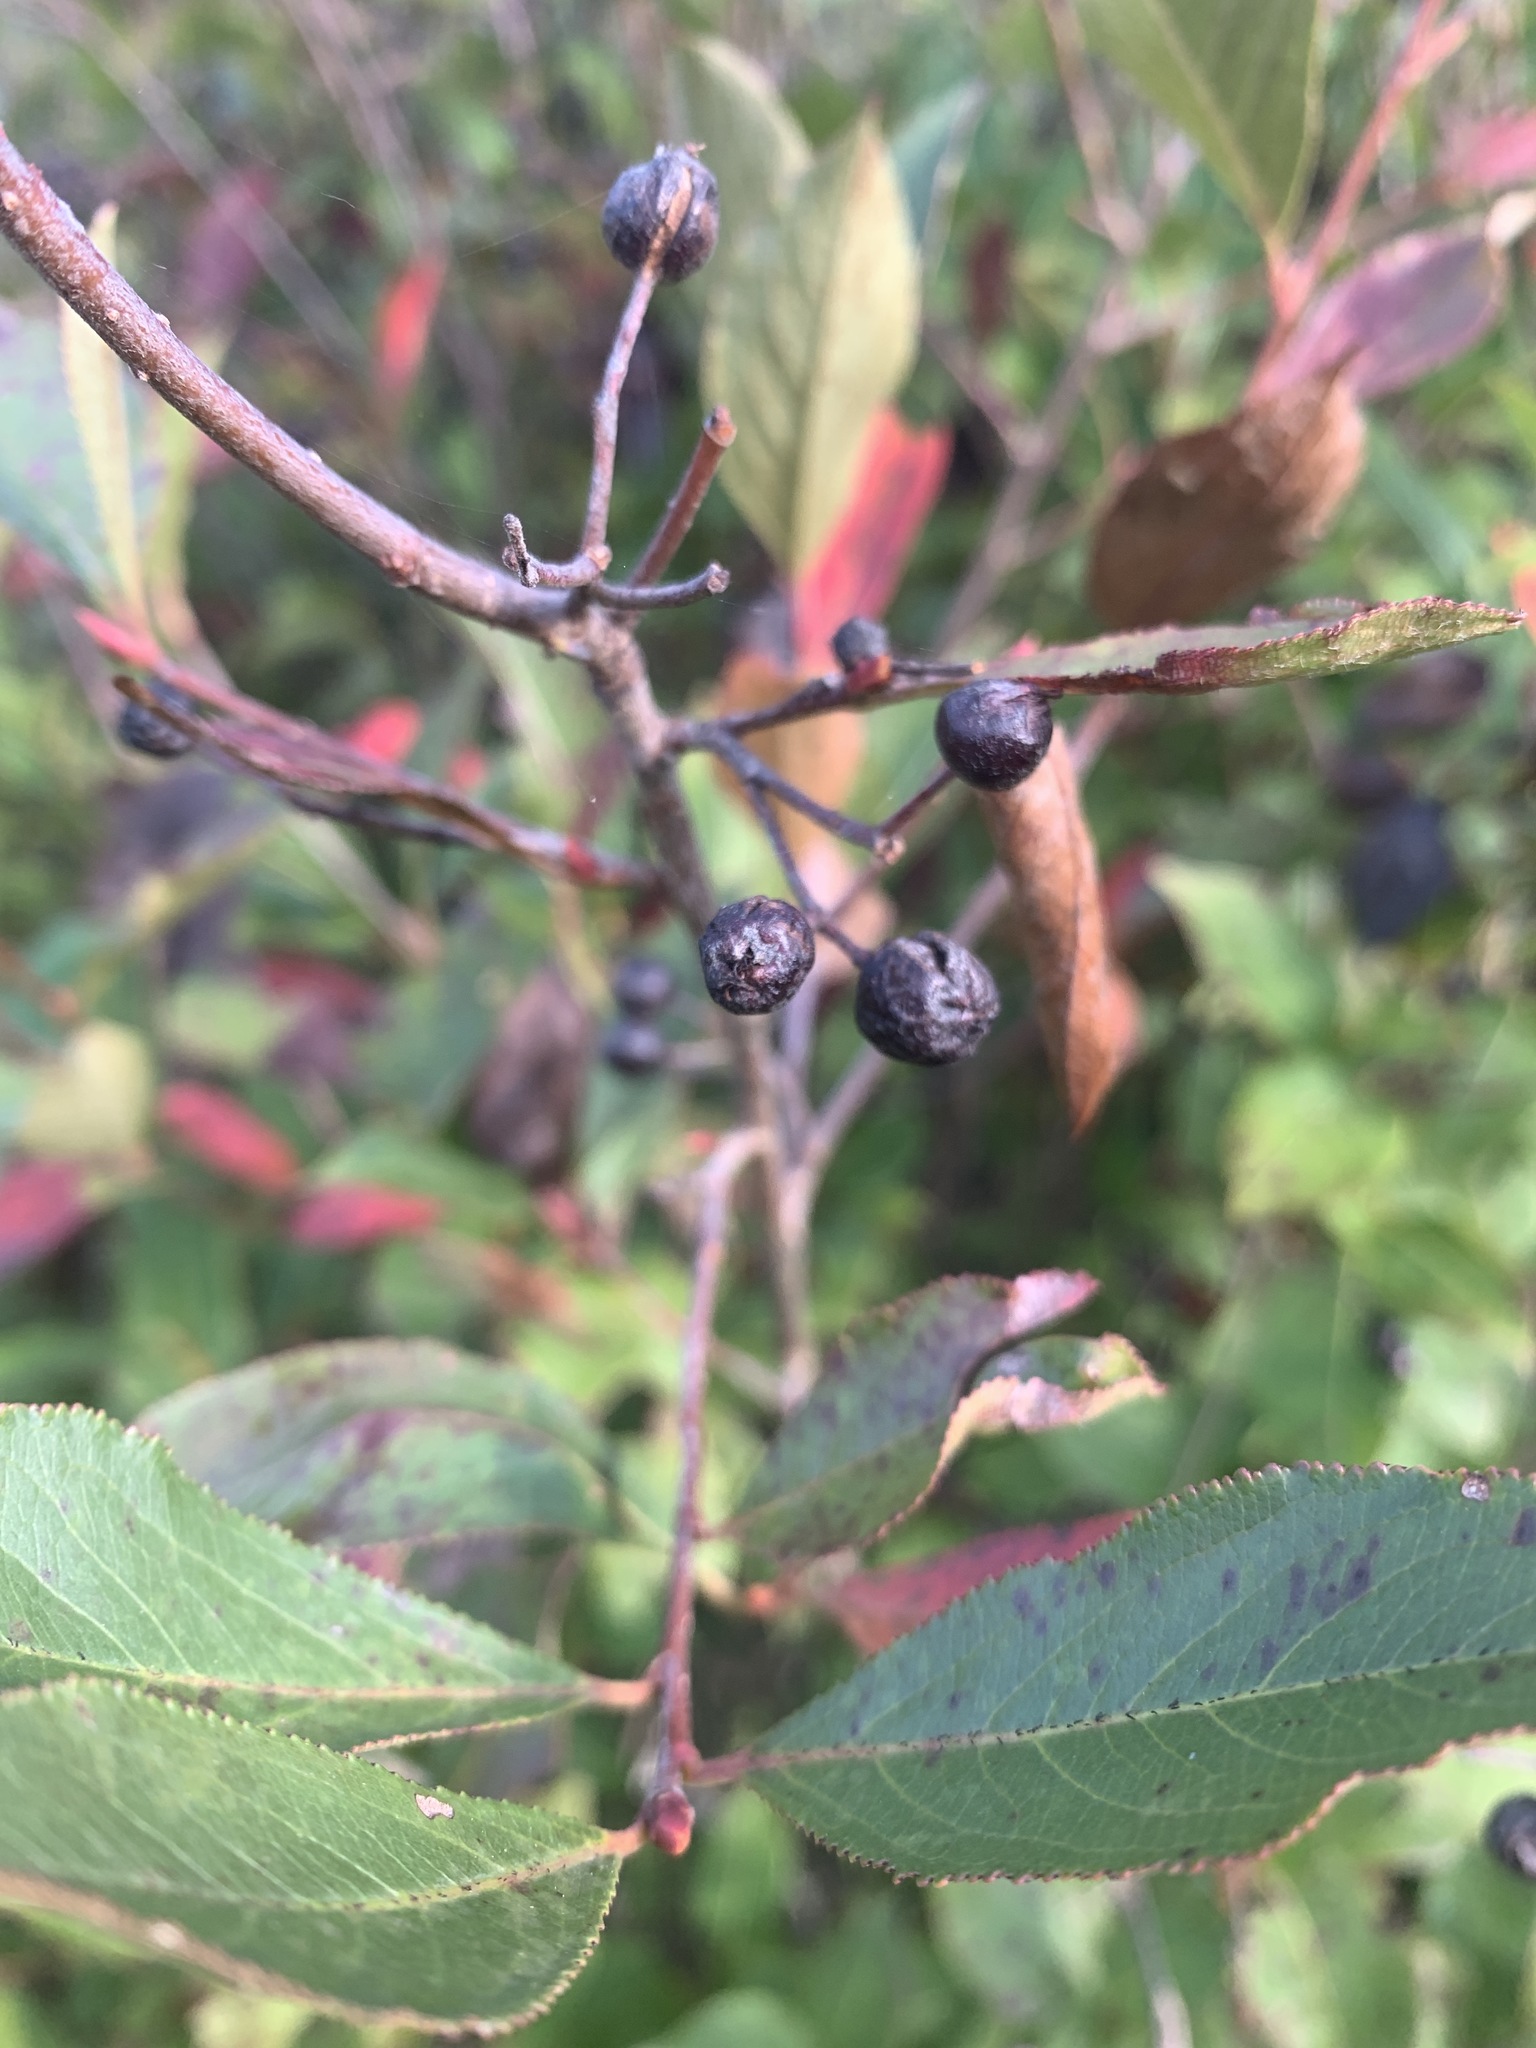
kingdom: Plantae
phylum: Tracheophyta
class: Magnoliopsida
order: Rosales
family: Rosaceae
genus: Aronia
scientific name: Aronia melanocarpa
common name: Black chokeberry
